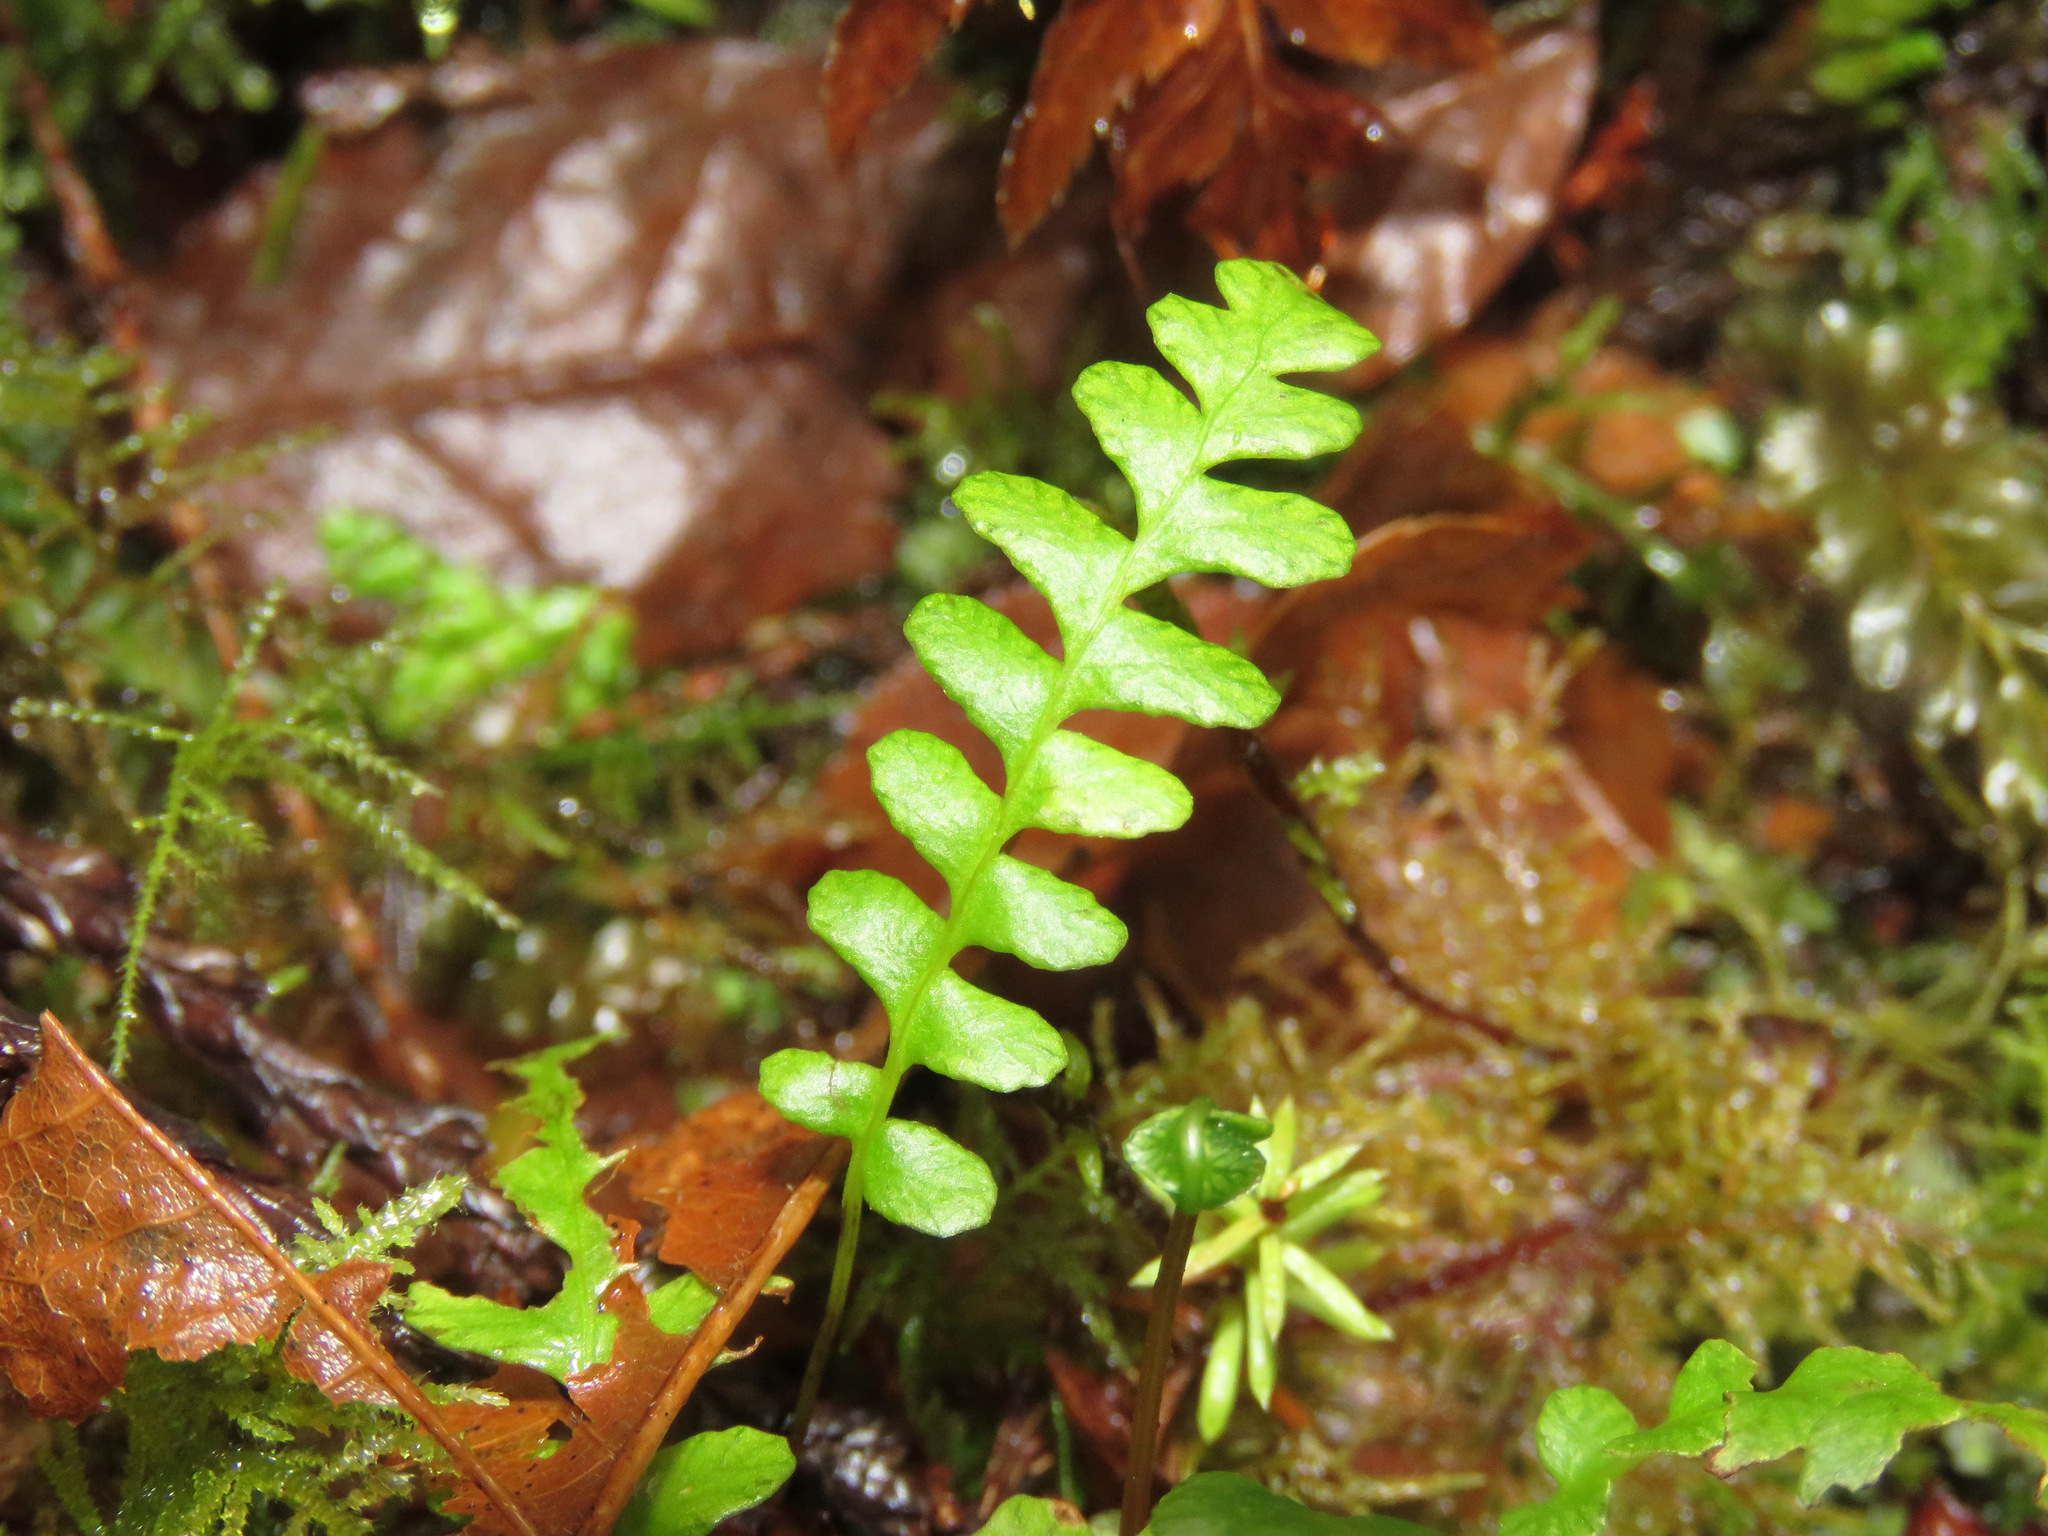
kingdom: Plantae
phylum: Tracheophyta
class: Polypodiopsida
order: Polypodiales
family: Blechnaceae
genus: Struthiopteris
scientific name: Struthiopteris spicant
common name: Deer fern
